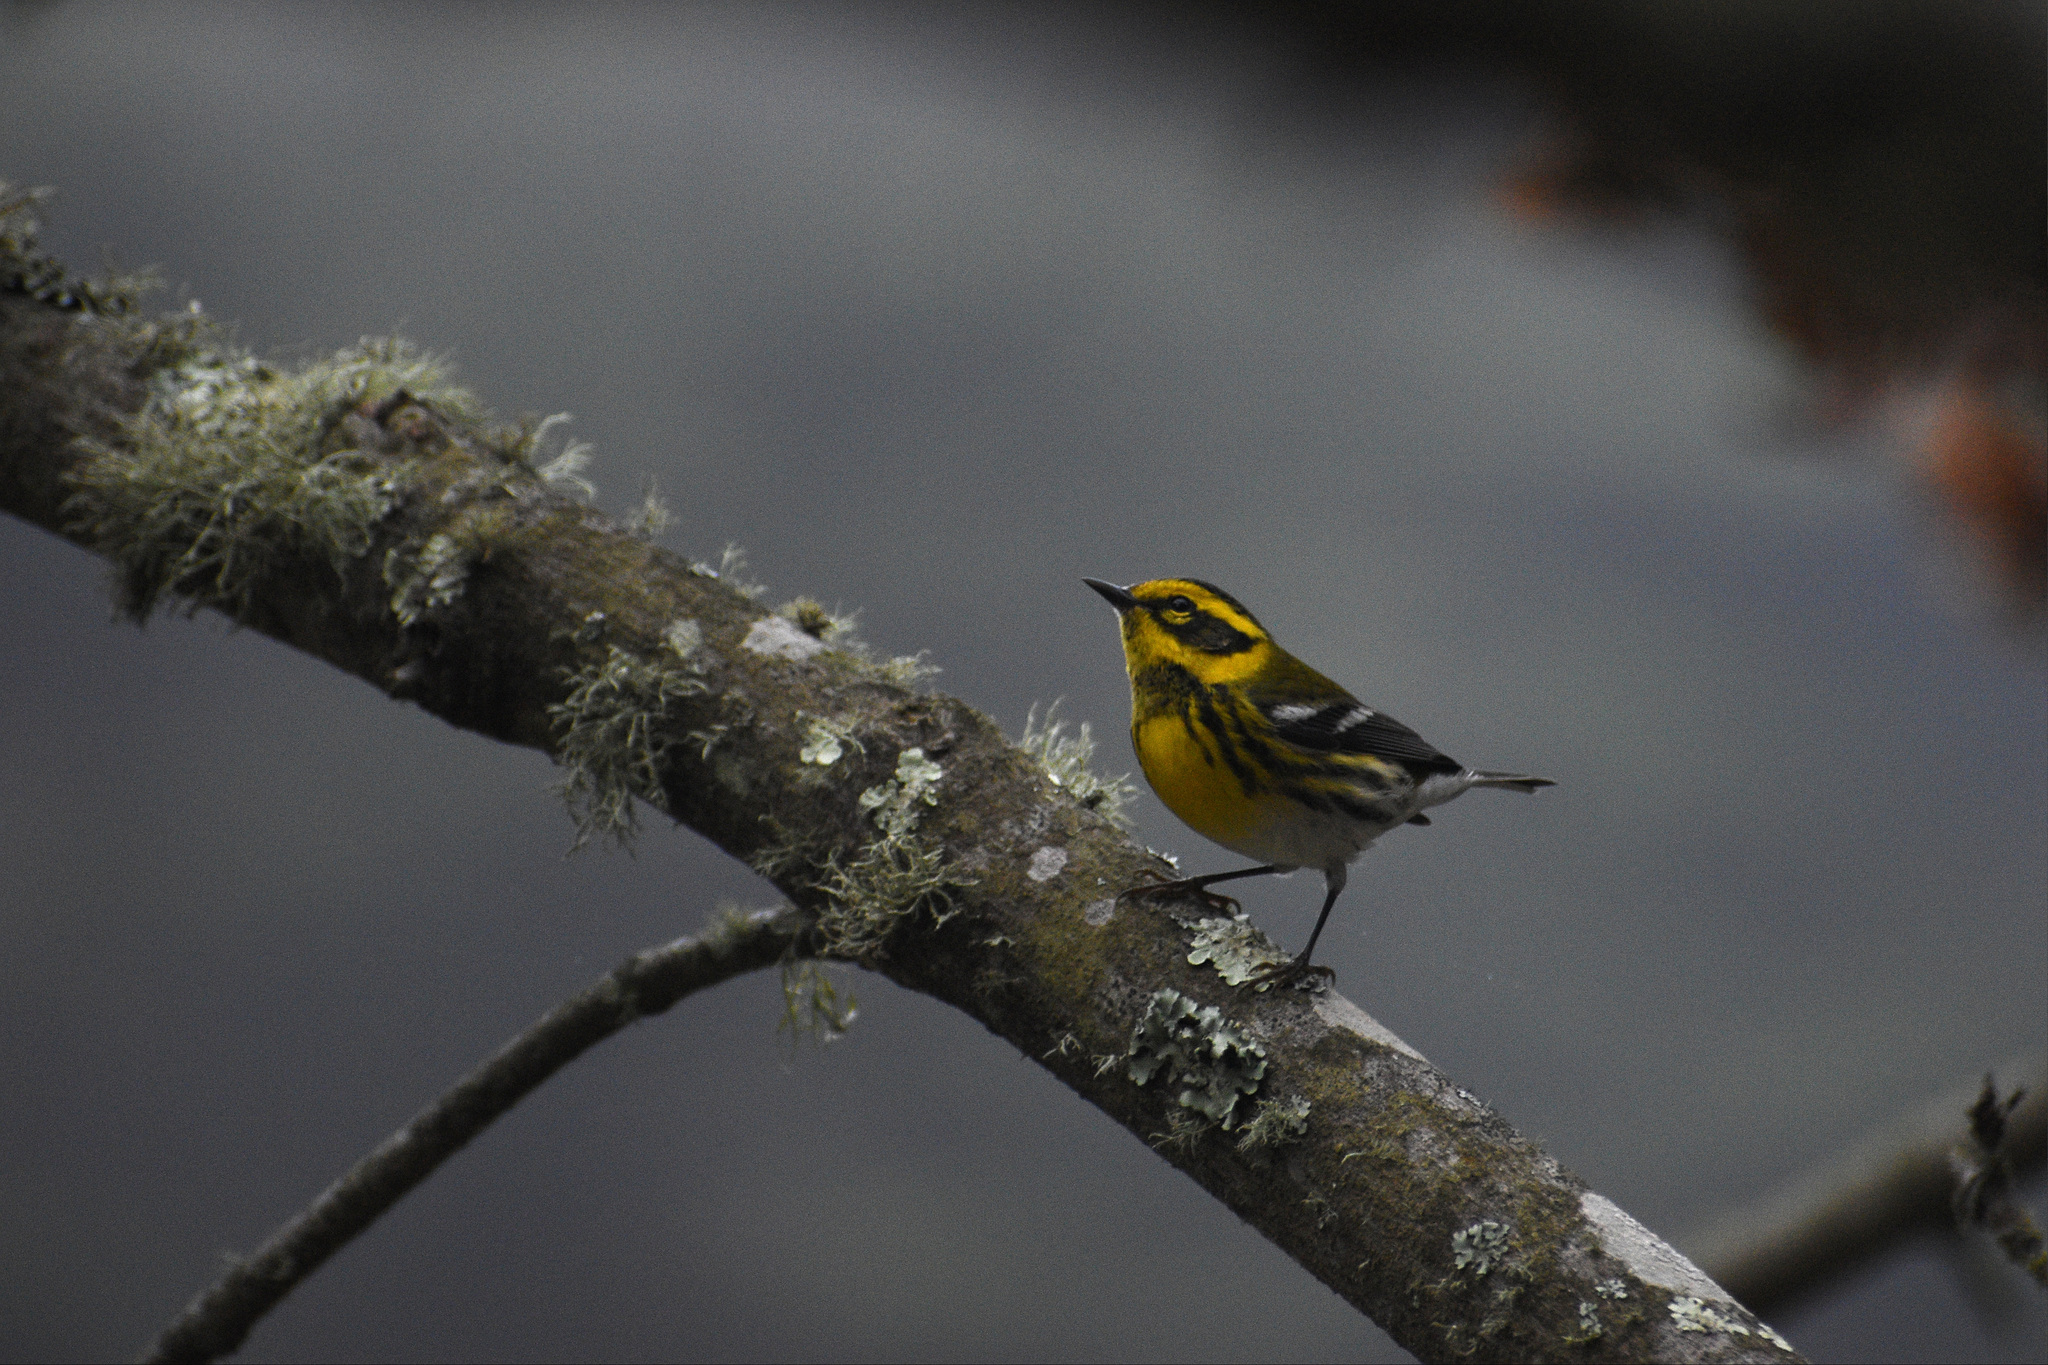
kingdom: Animalia
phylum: Chordata
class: Aves
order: Passeriformes
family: Parulidae
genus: Setophaga
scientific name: Setophaga townsendi
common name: Townsend's warbler
